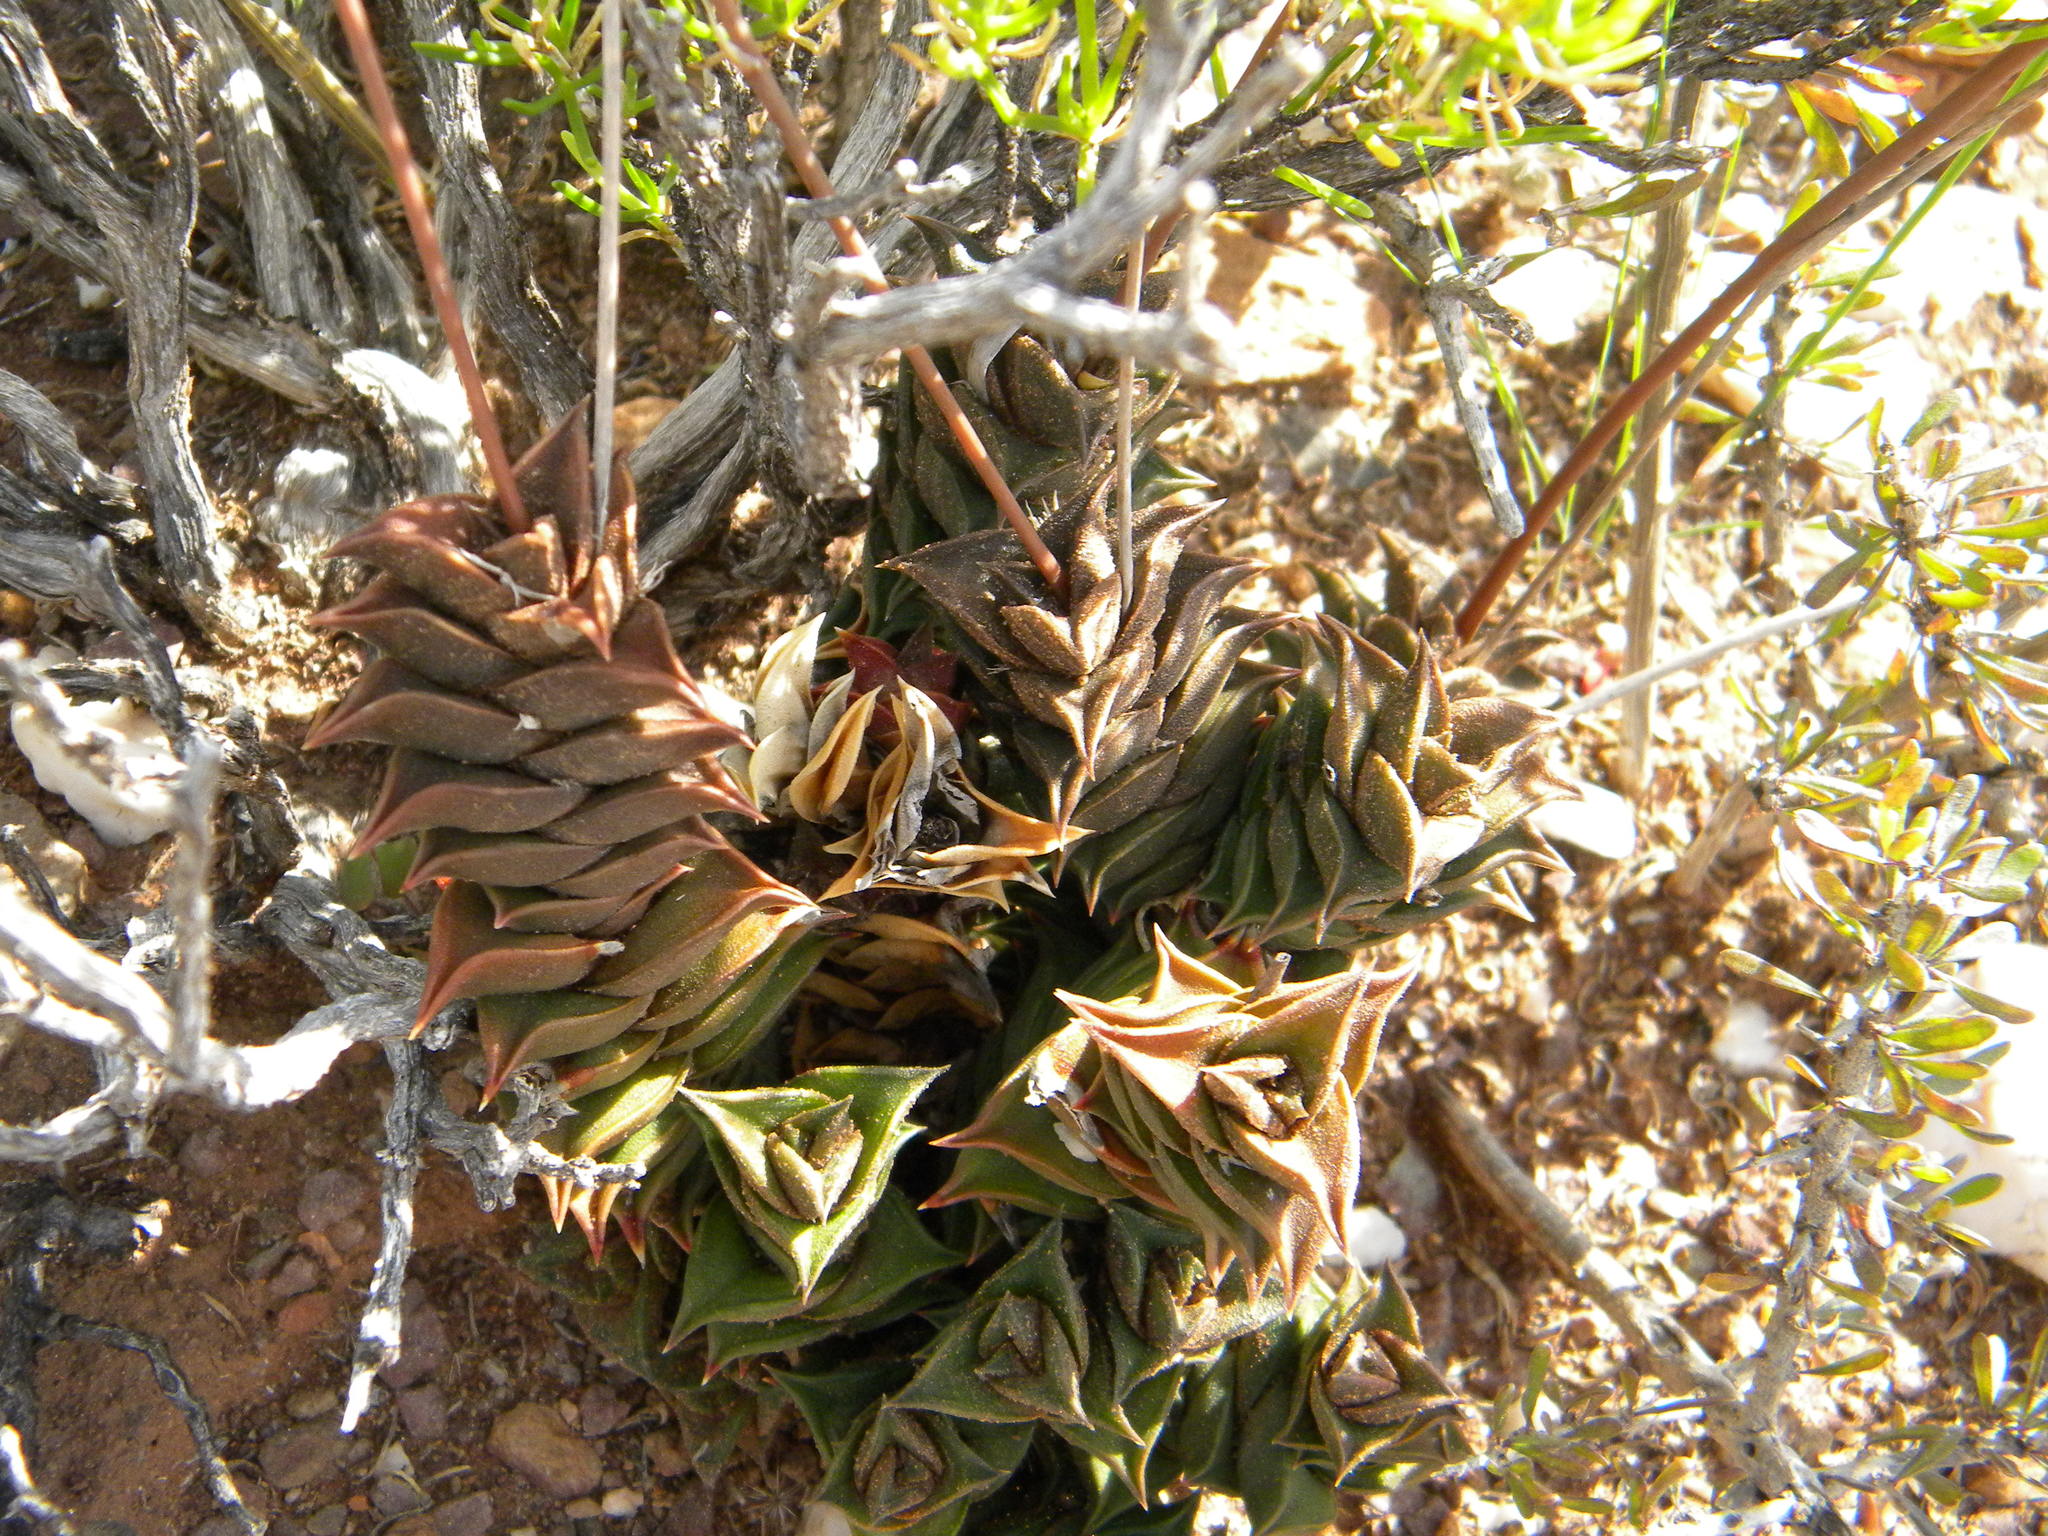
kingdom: Plantae
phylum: Tracheophyta
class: Liliopsida
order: Asparagales
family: Asphodelaceae
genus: Haworthiopsis
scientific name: Haworthiopsis viscosa
